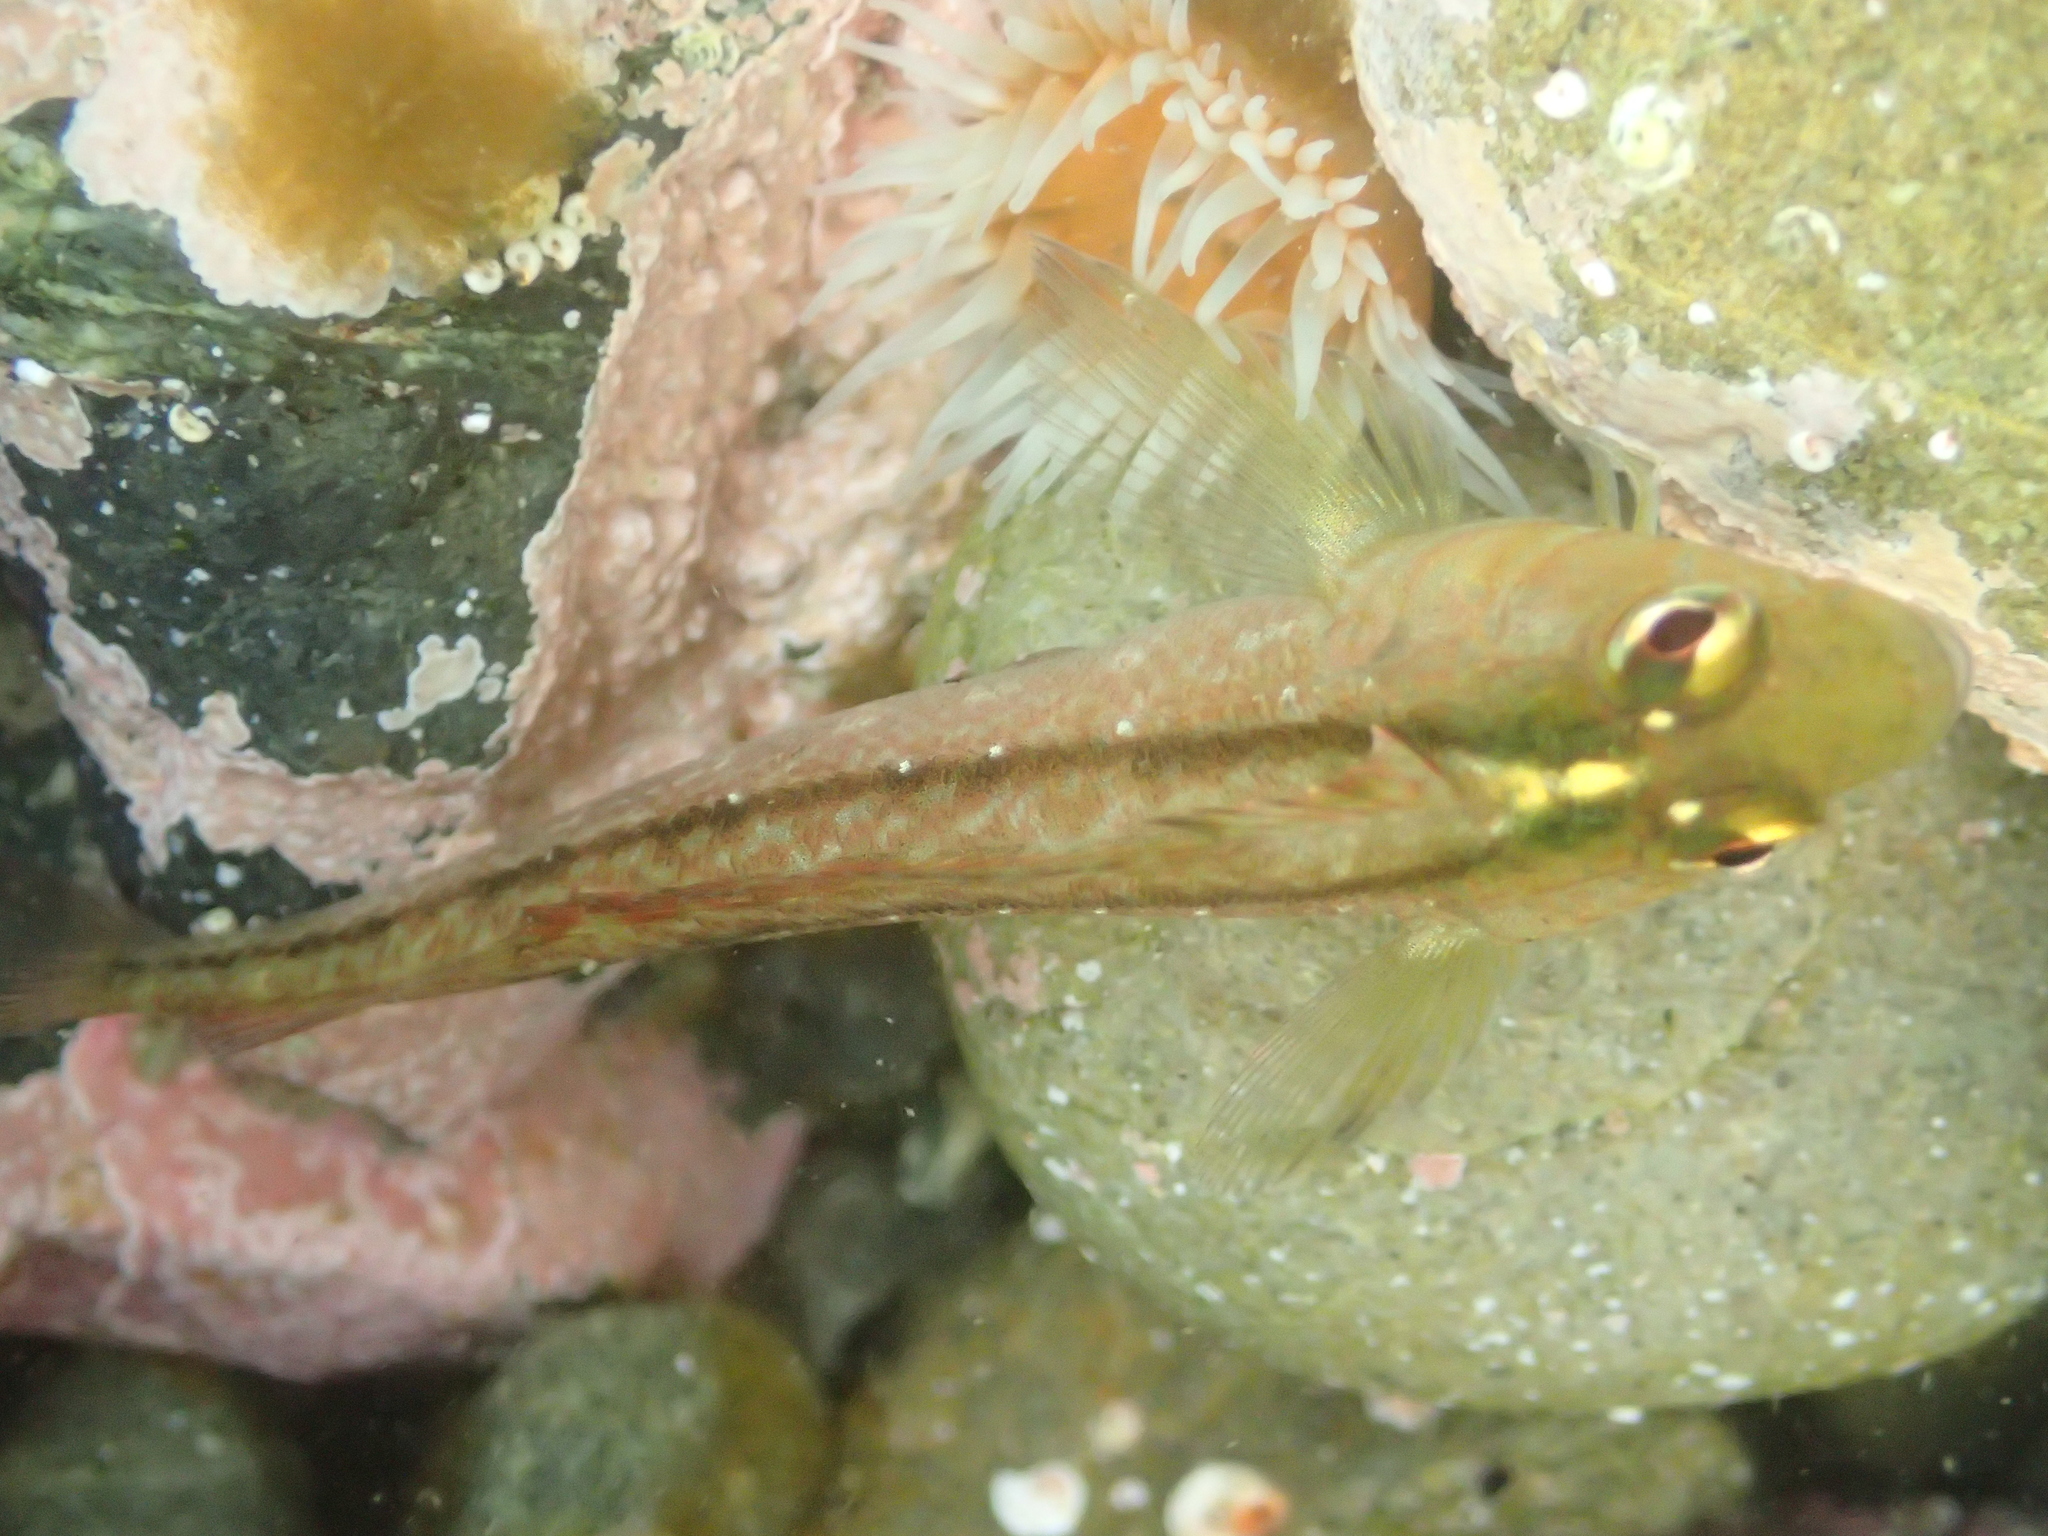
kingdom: Animalia
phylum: Chordata
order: Perciformes
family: Tripterygiidae
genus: Forsterygion
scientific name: Forsterygion lapillum
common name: Common triplefin
